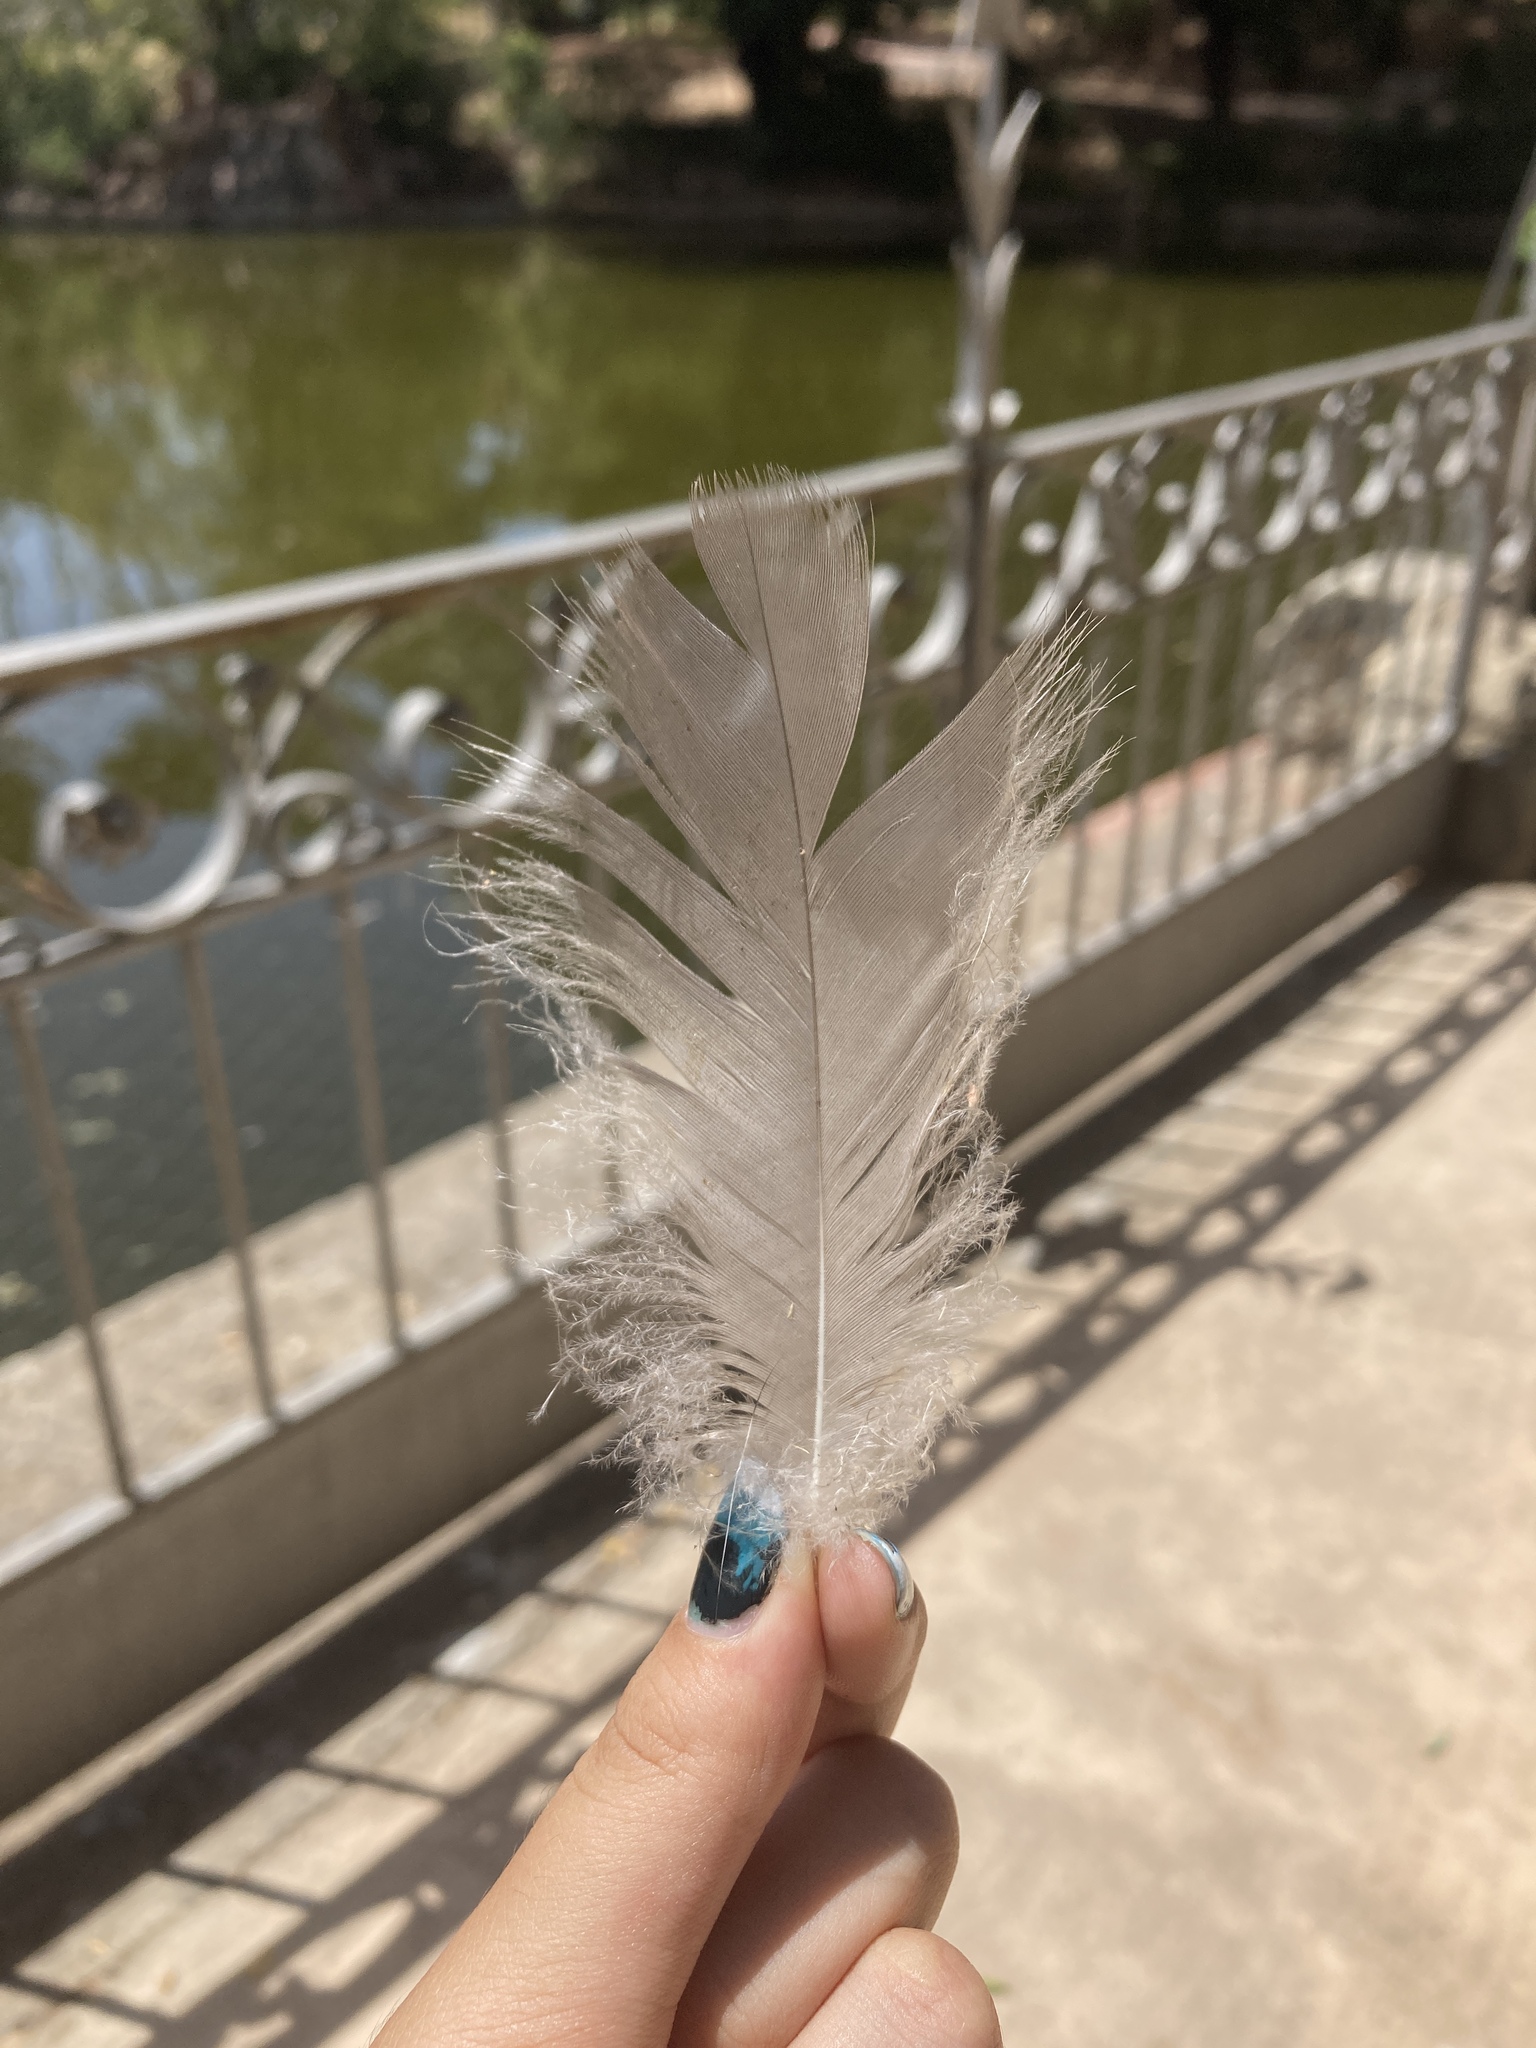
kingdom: Animalia
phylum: Chordata
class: Aves
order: Anseriformes
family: Anatidae
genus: Anser
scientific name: Anser anser
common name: Greylag goose
